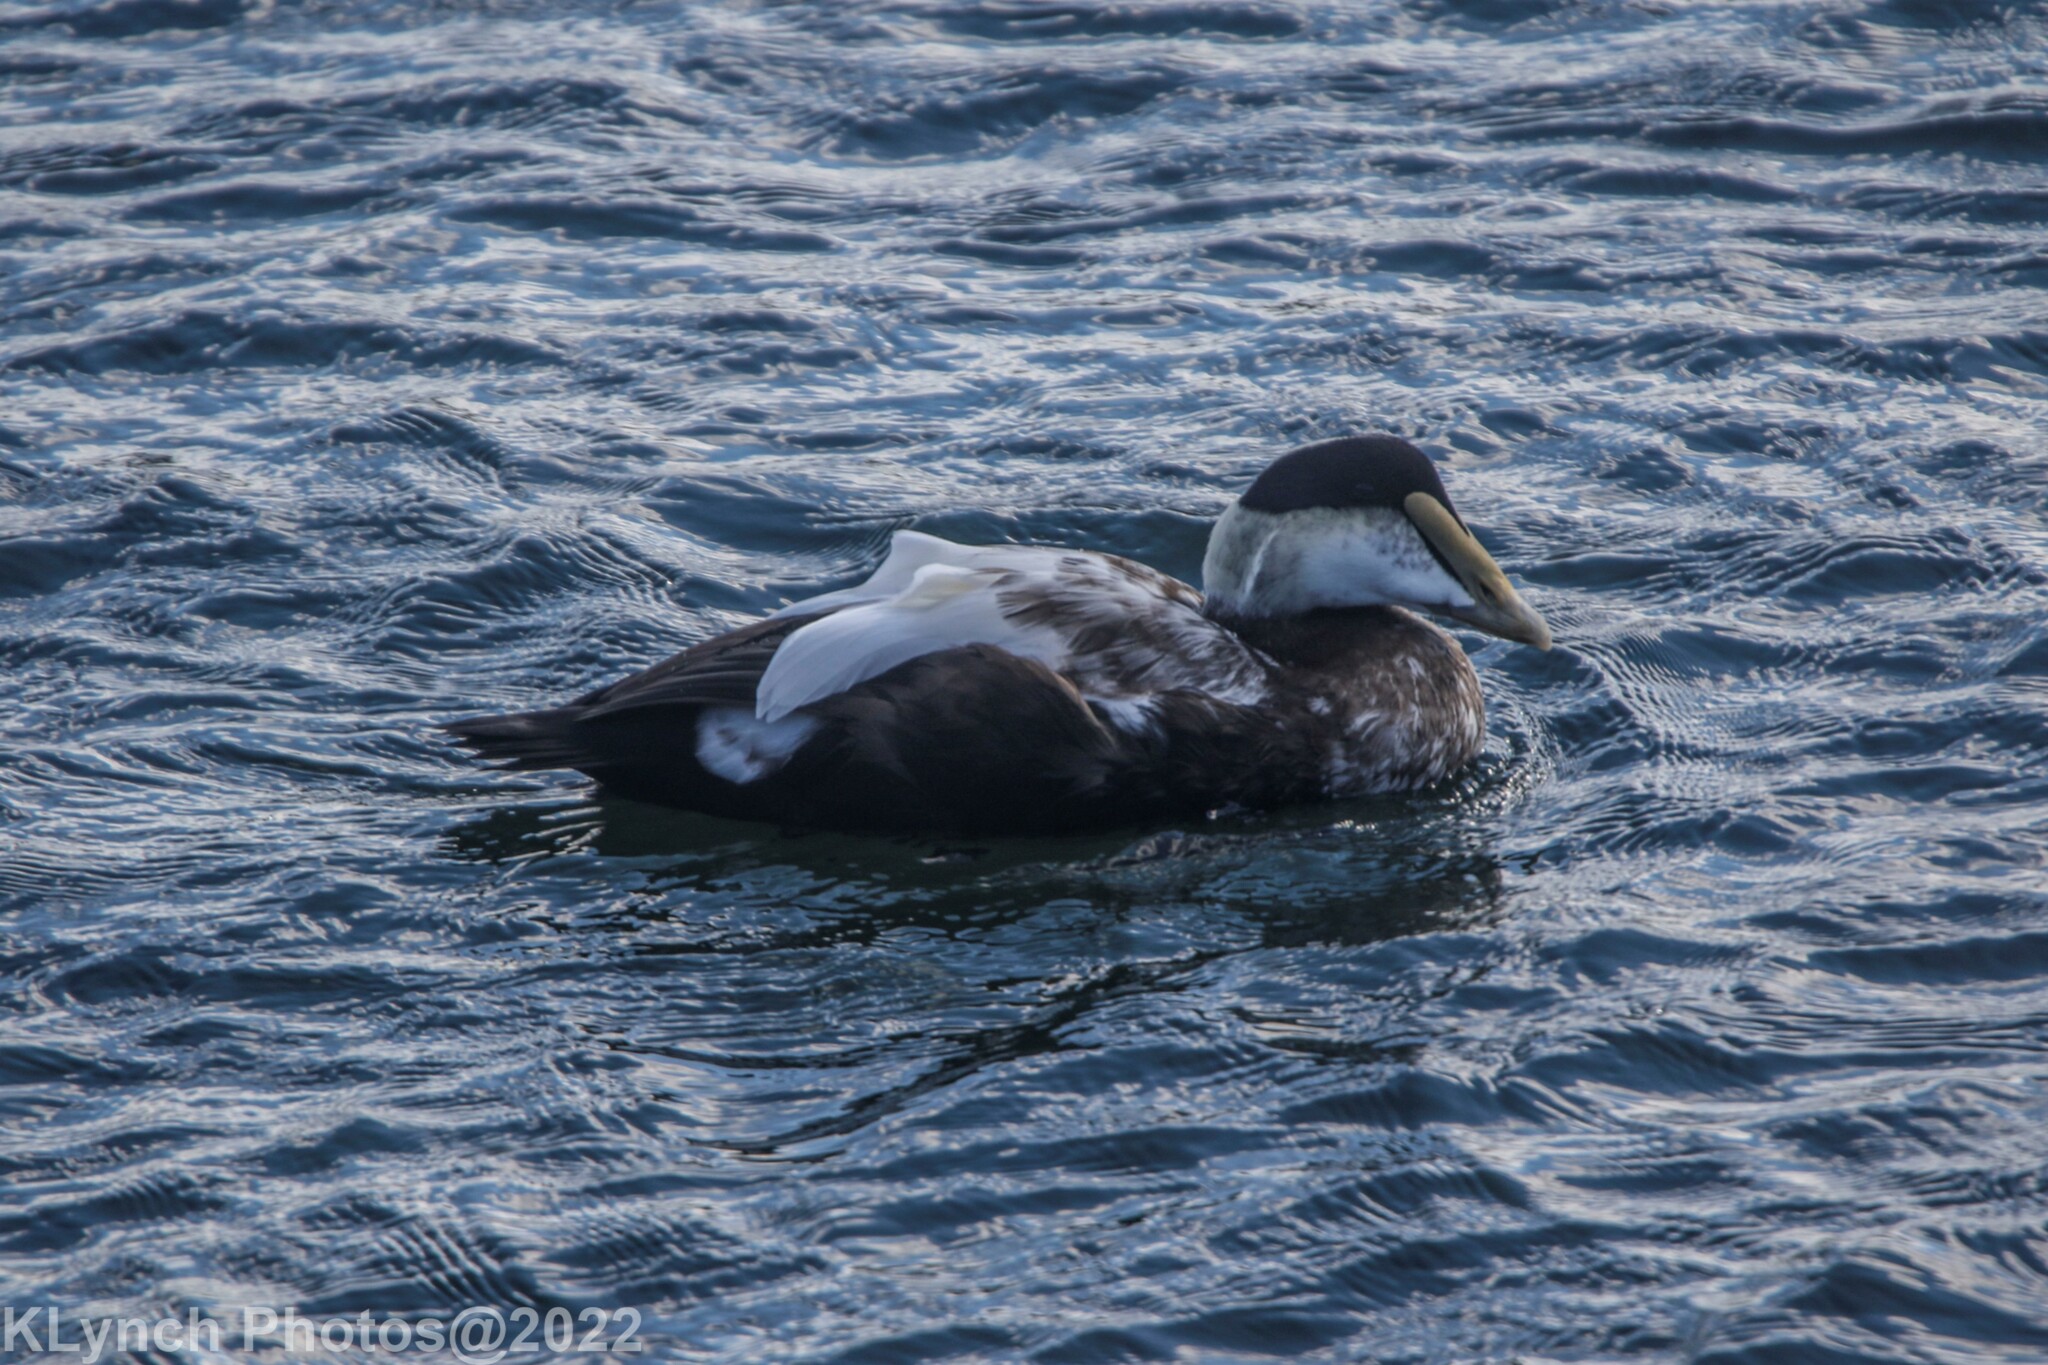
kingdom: Animalia
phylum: Chordata
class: Aves
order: Anseriformes
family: Anatidae
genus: Somateria
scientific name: Somateria mollissima
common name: Common eider
